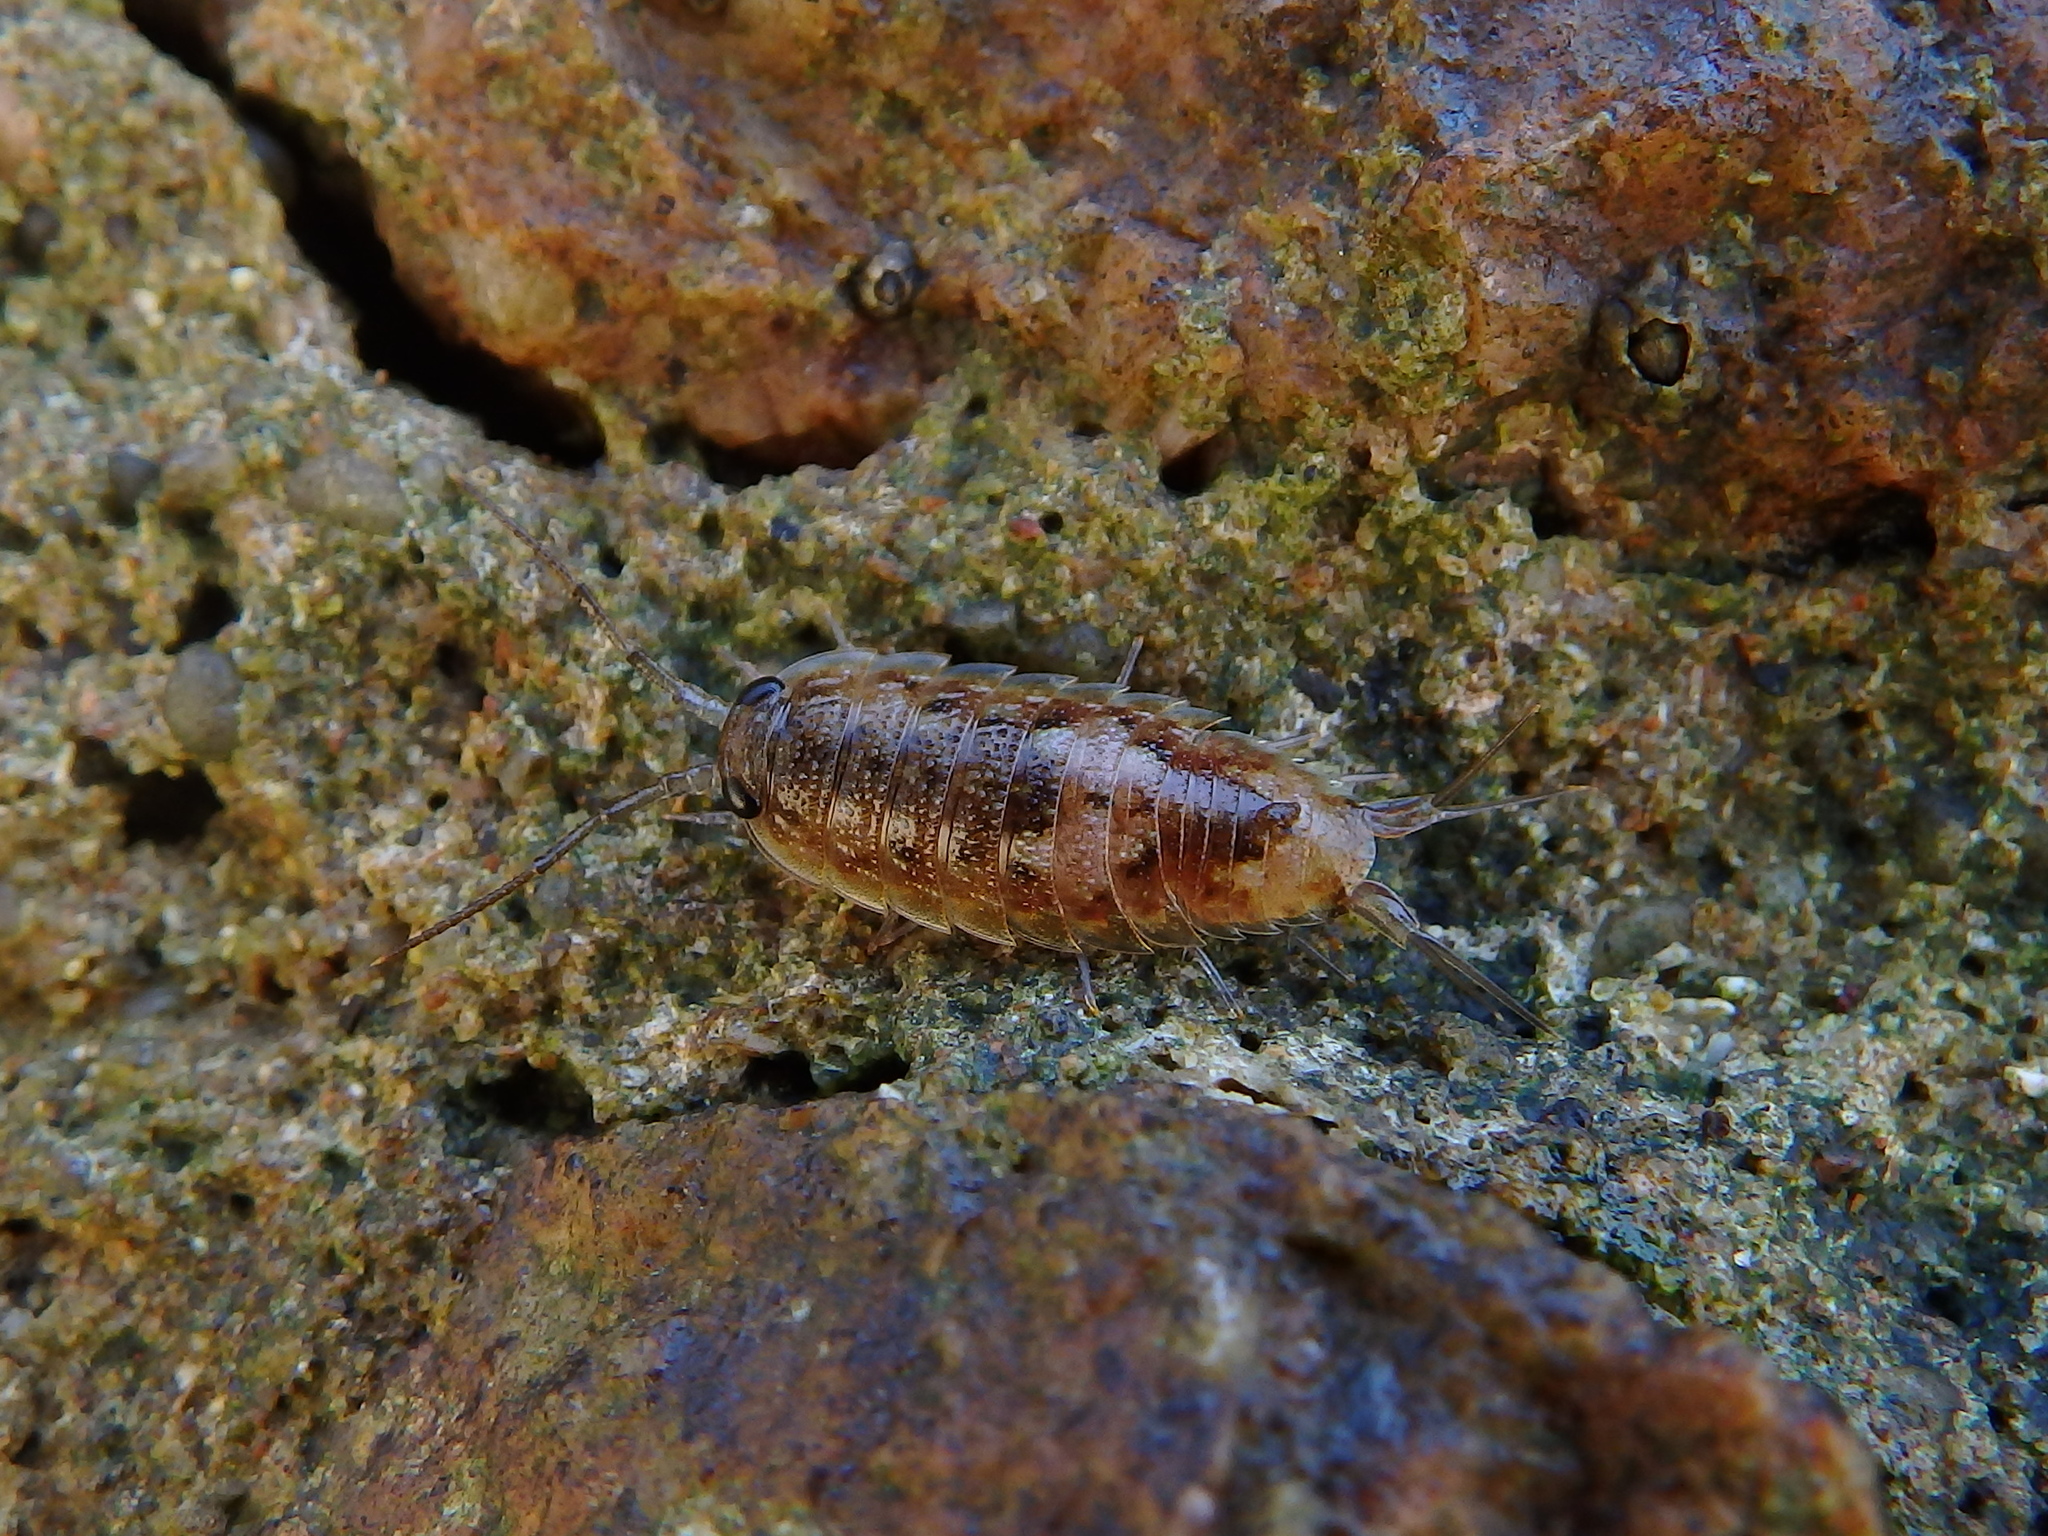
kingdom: Animalia
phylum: Arthropoda
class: Malacostraca
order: Isopoda
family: Ligiidae
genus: Ligia
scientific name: Ligia oceanica
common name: Sea slater
